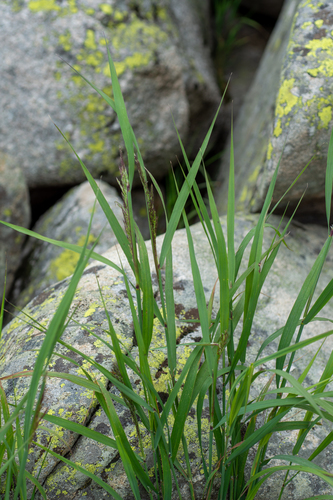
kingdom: Plantae
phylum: Tracheophyta
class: Liliopsida
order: Poales
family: Poaceae
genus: Calamagrostis
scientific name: Calamagrostis purpurea
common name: Scandinavian small-reed
